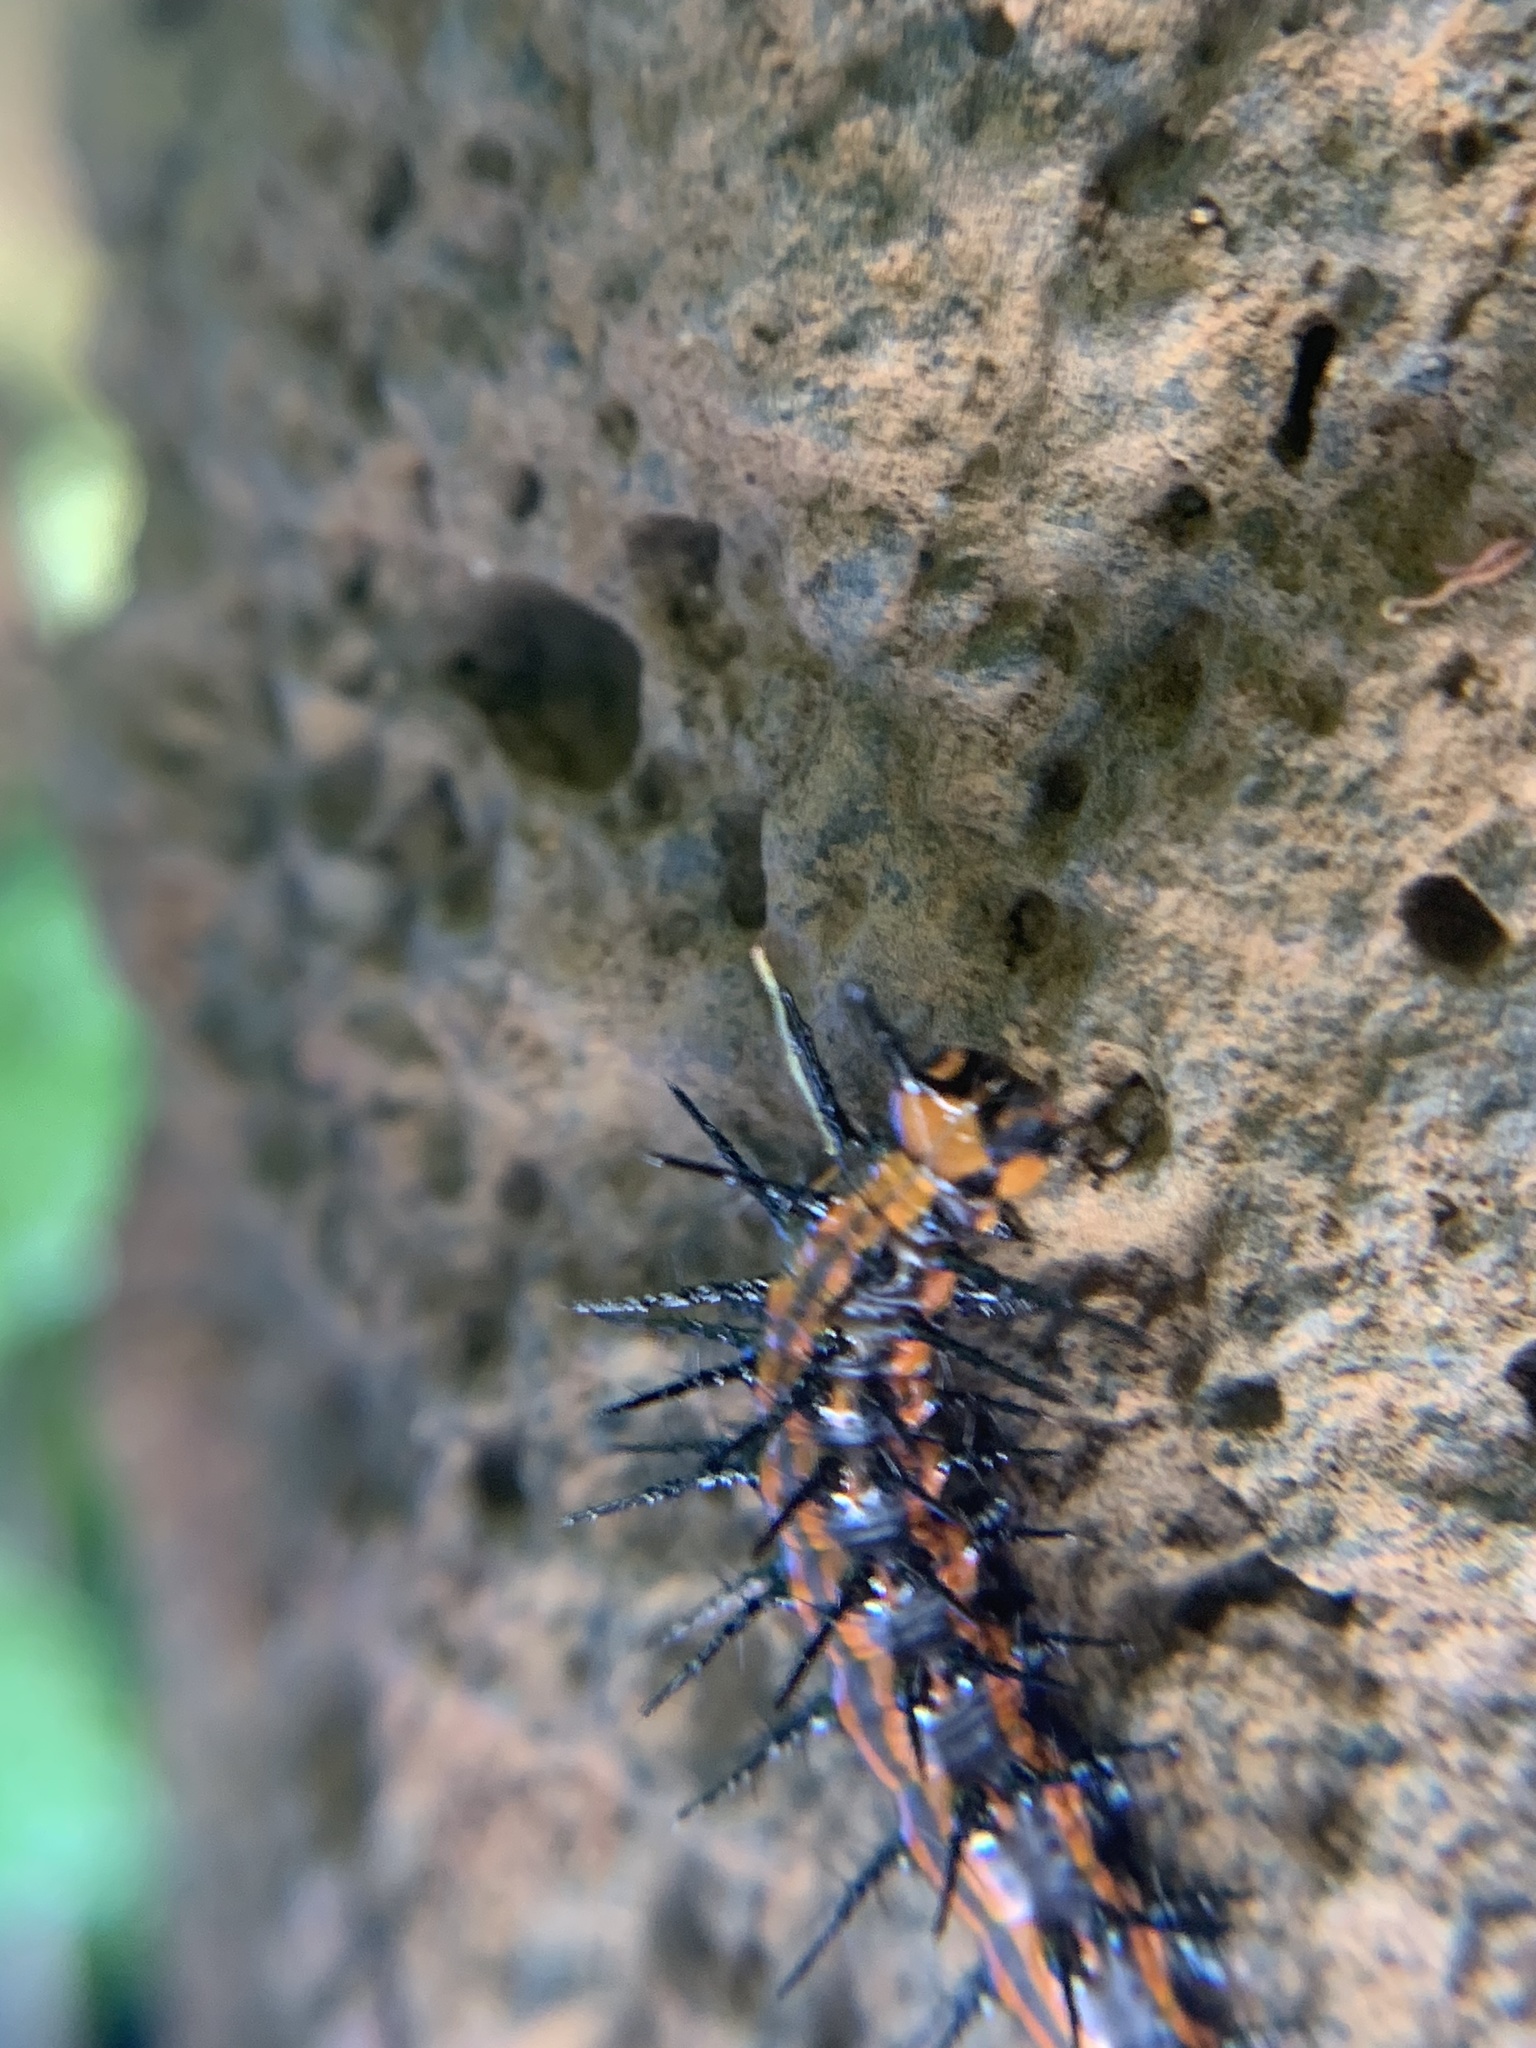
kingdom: Animalia
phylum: Arthropoda
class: Insecta
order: Lepidoptera
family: Nymphalidae
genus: Dione
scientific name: Dione vanillae
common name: Gulf fritillary
